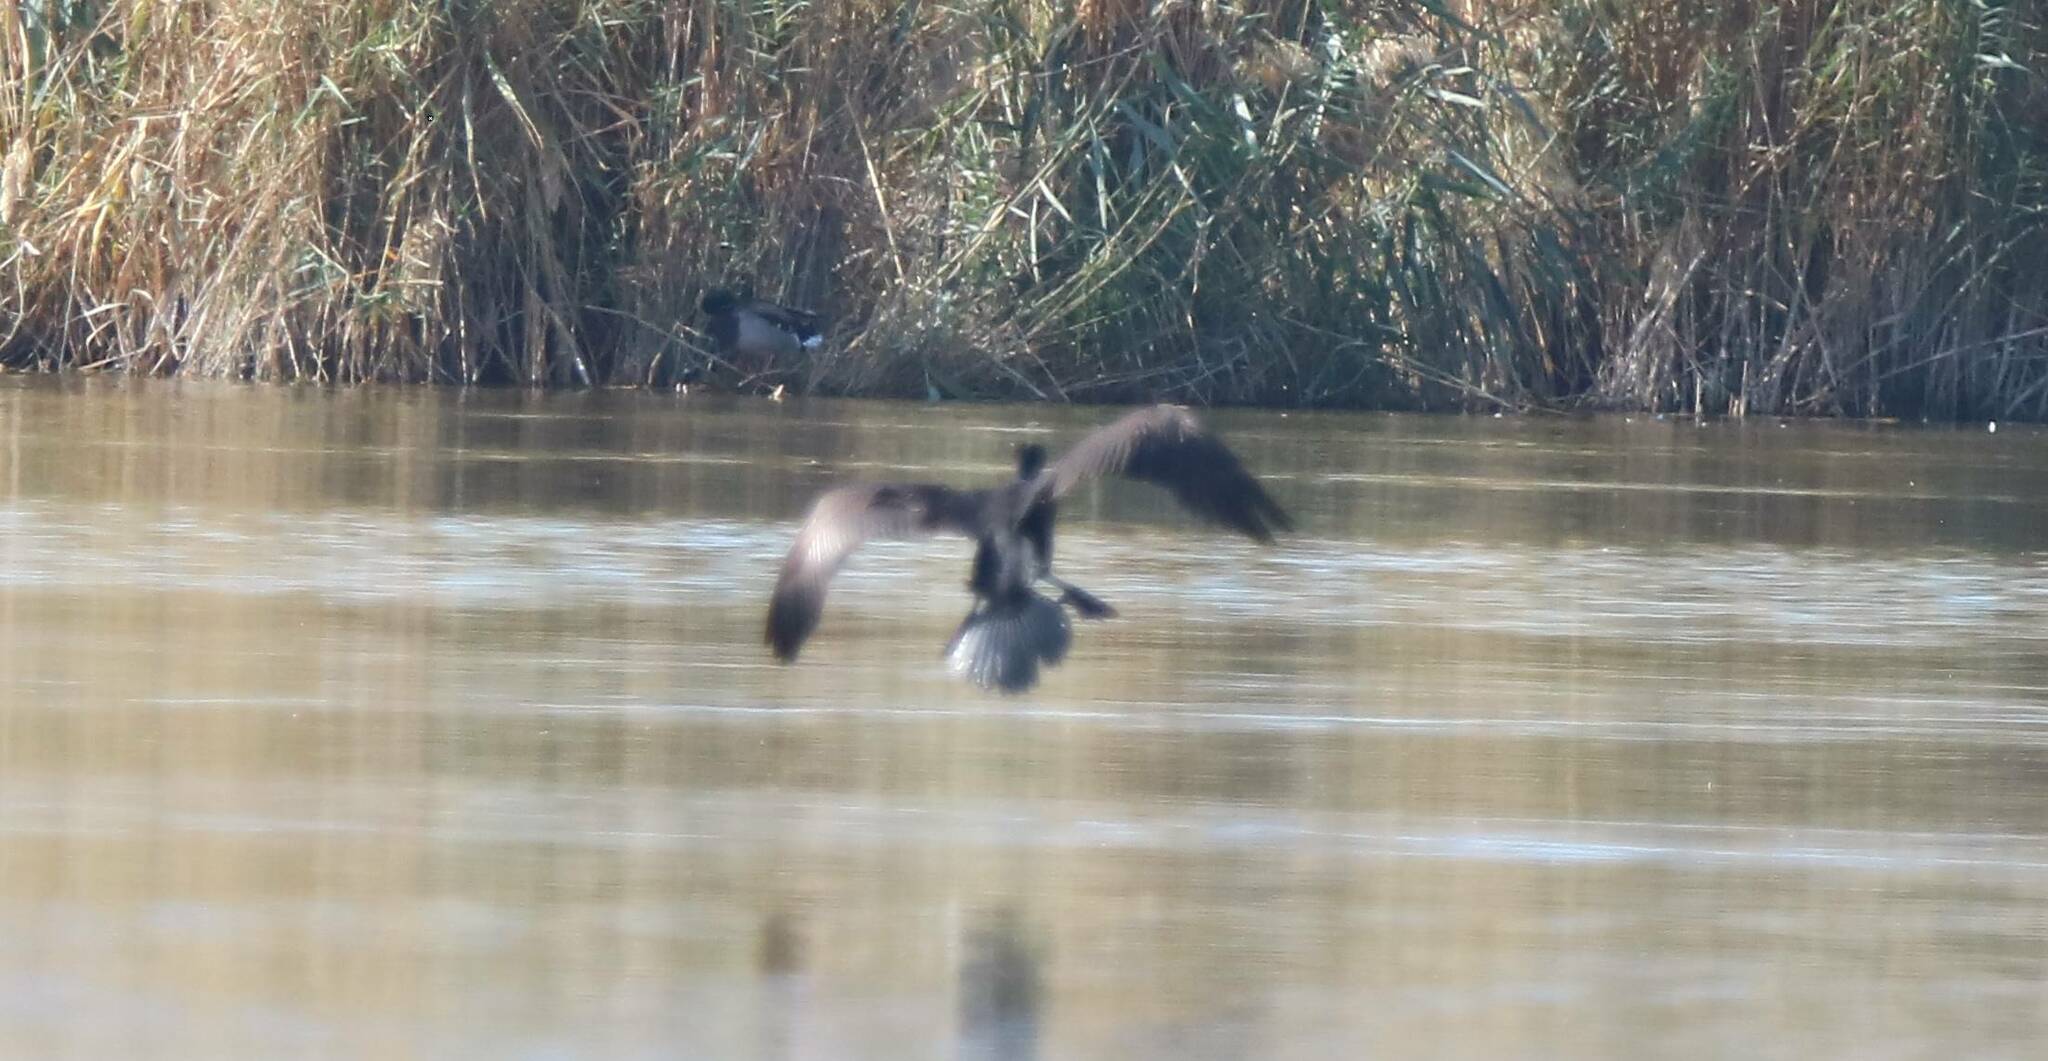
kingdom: Animalia
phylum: Chordata
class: Aves
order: Suliformes
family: Phalacrocoracidae
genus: Phalacrocorax
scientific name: Phalacrocorax carbo
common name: Great cormorant
